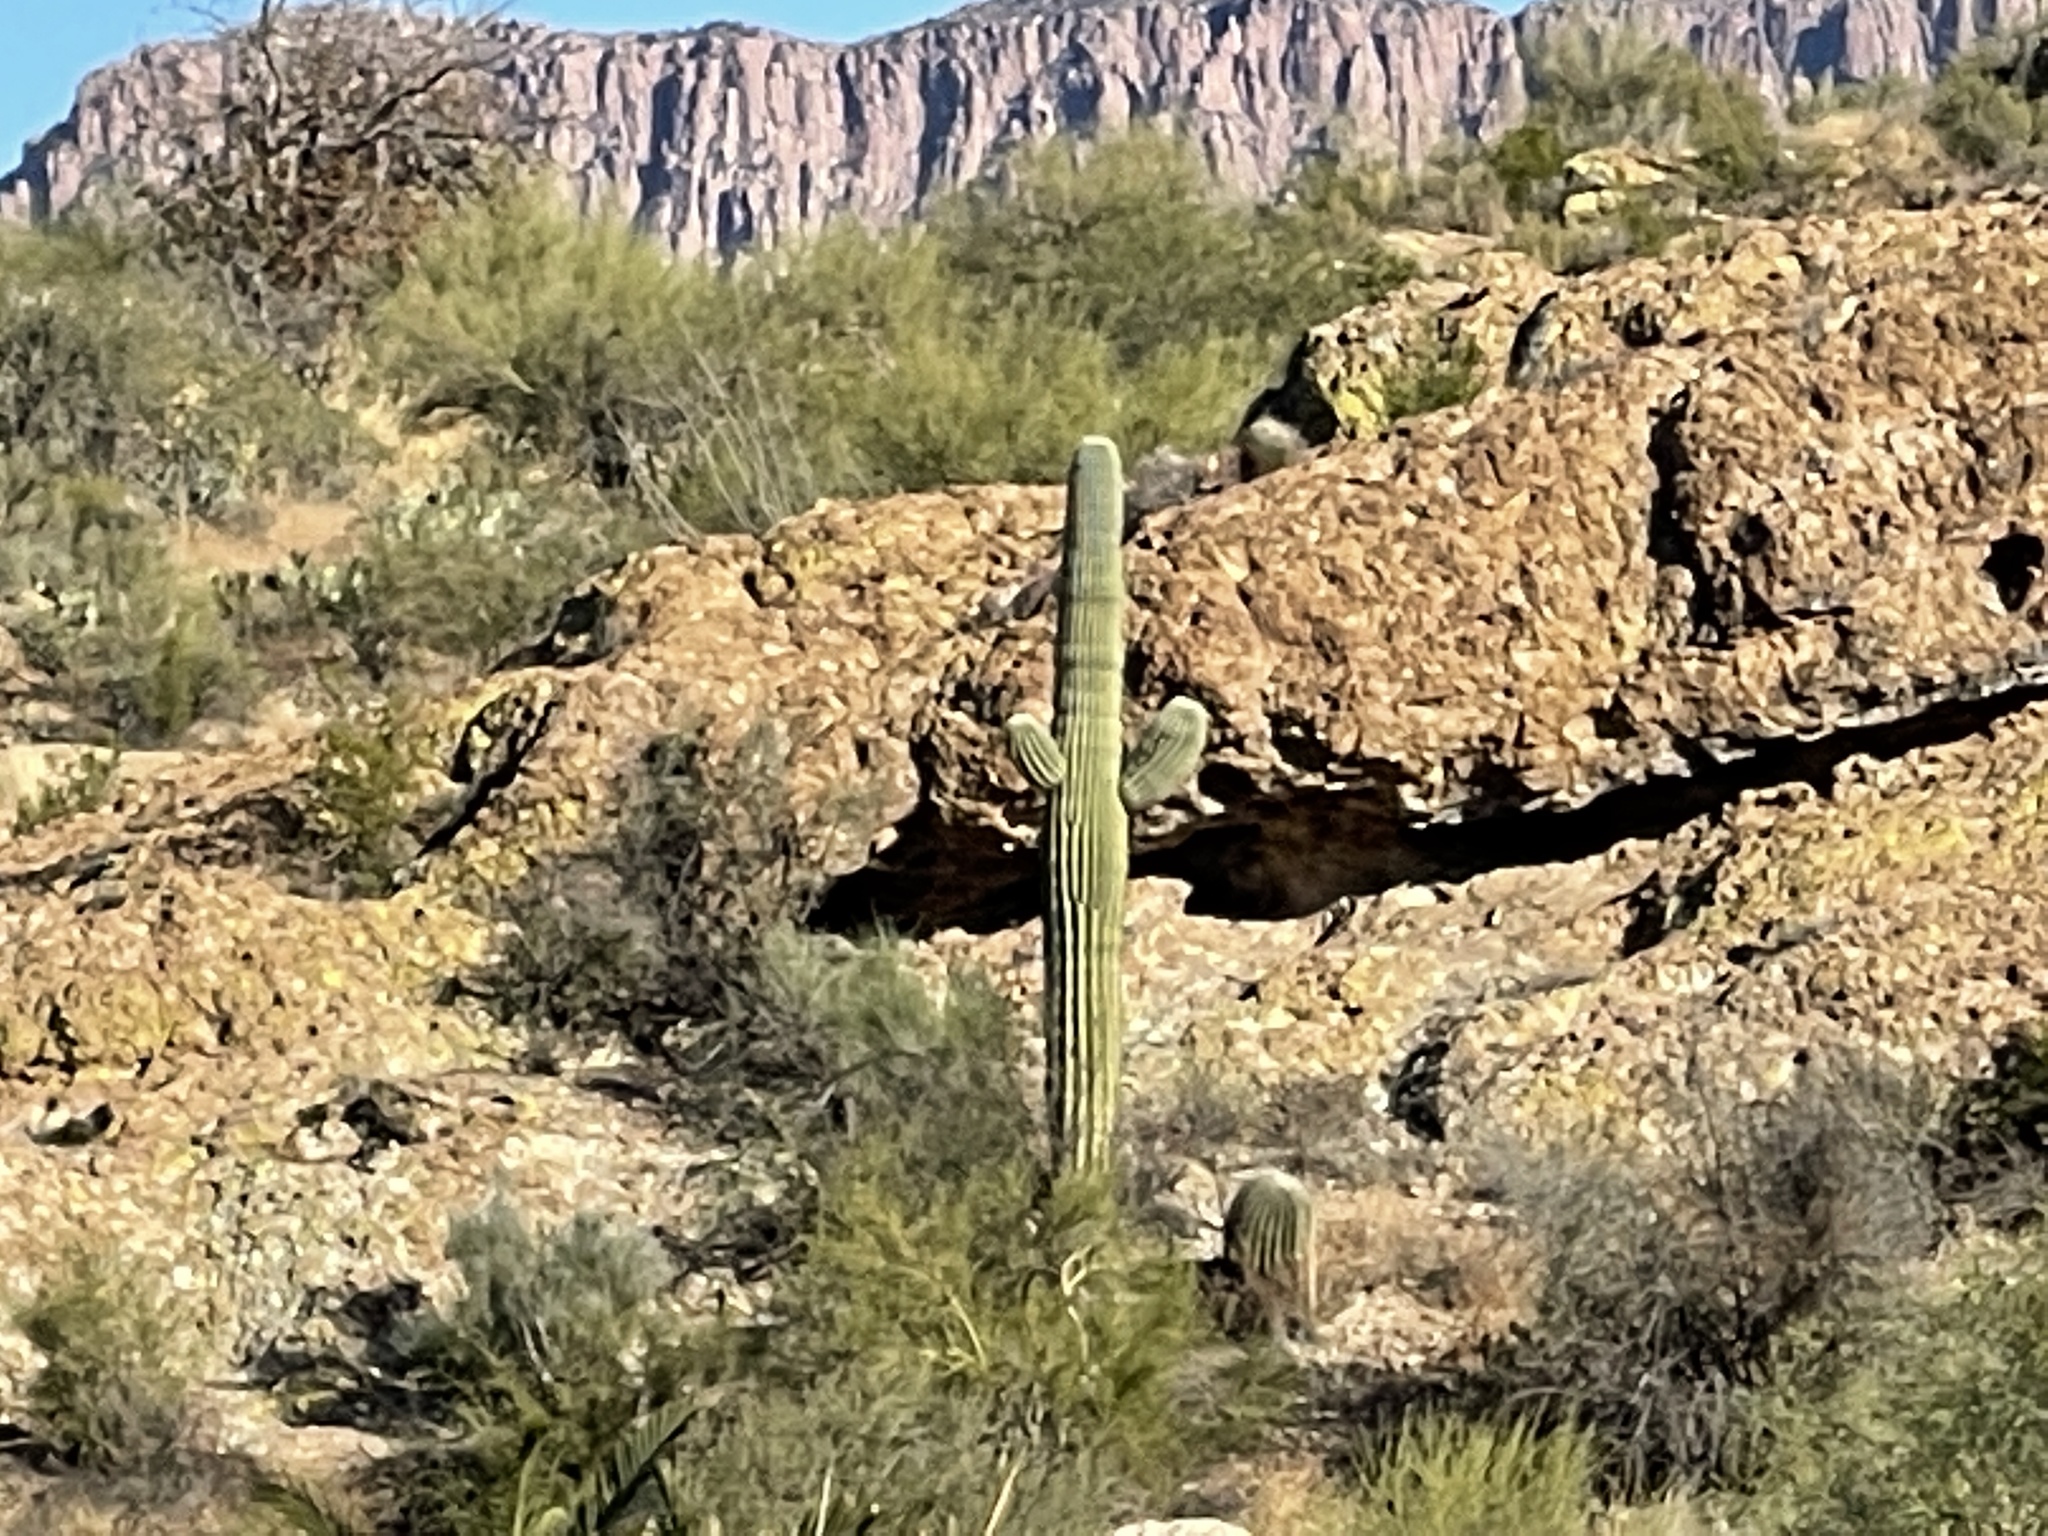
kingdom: Plantae
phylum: Tracheophyta
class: Magnoliopsida
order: Caryophyllales
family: Cactaceae
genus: Carnegiea
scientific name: Carnegiea gigantea
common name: Saguaro
